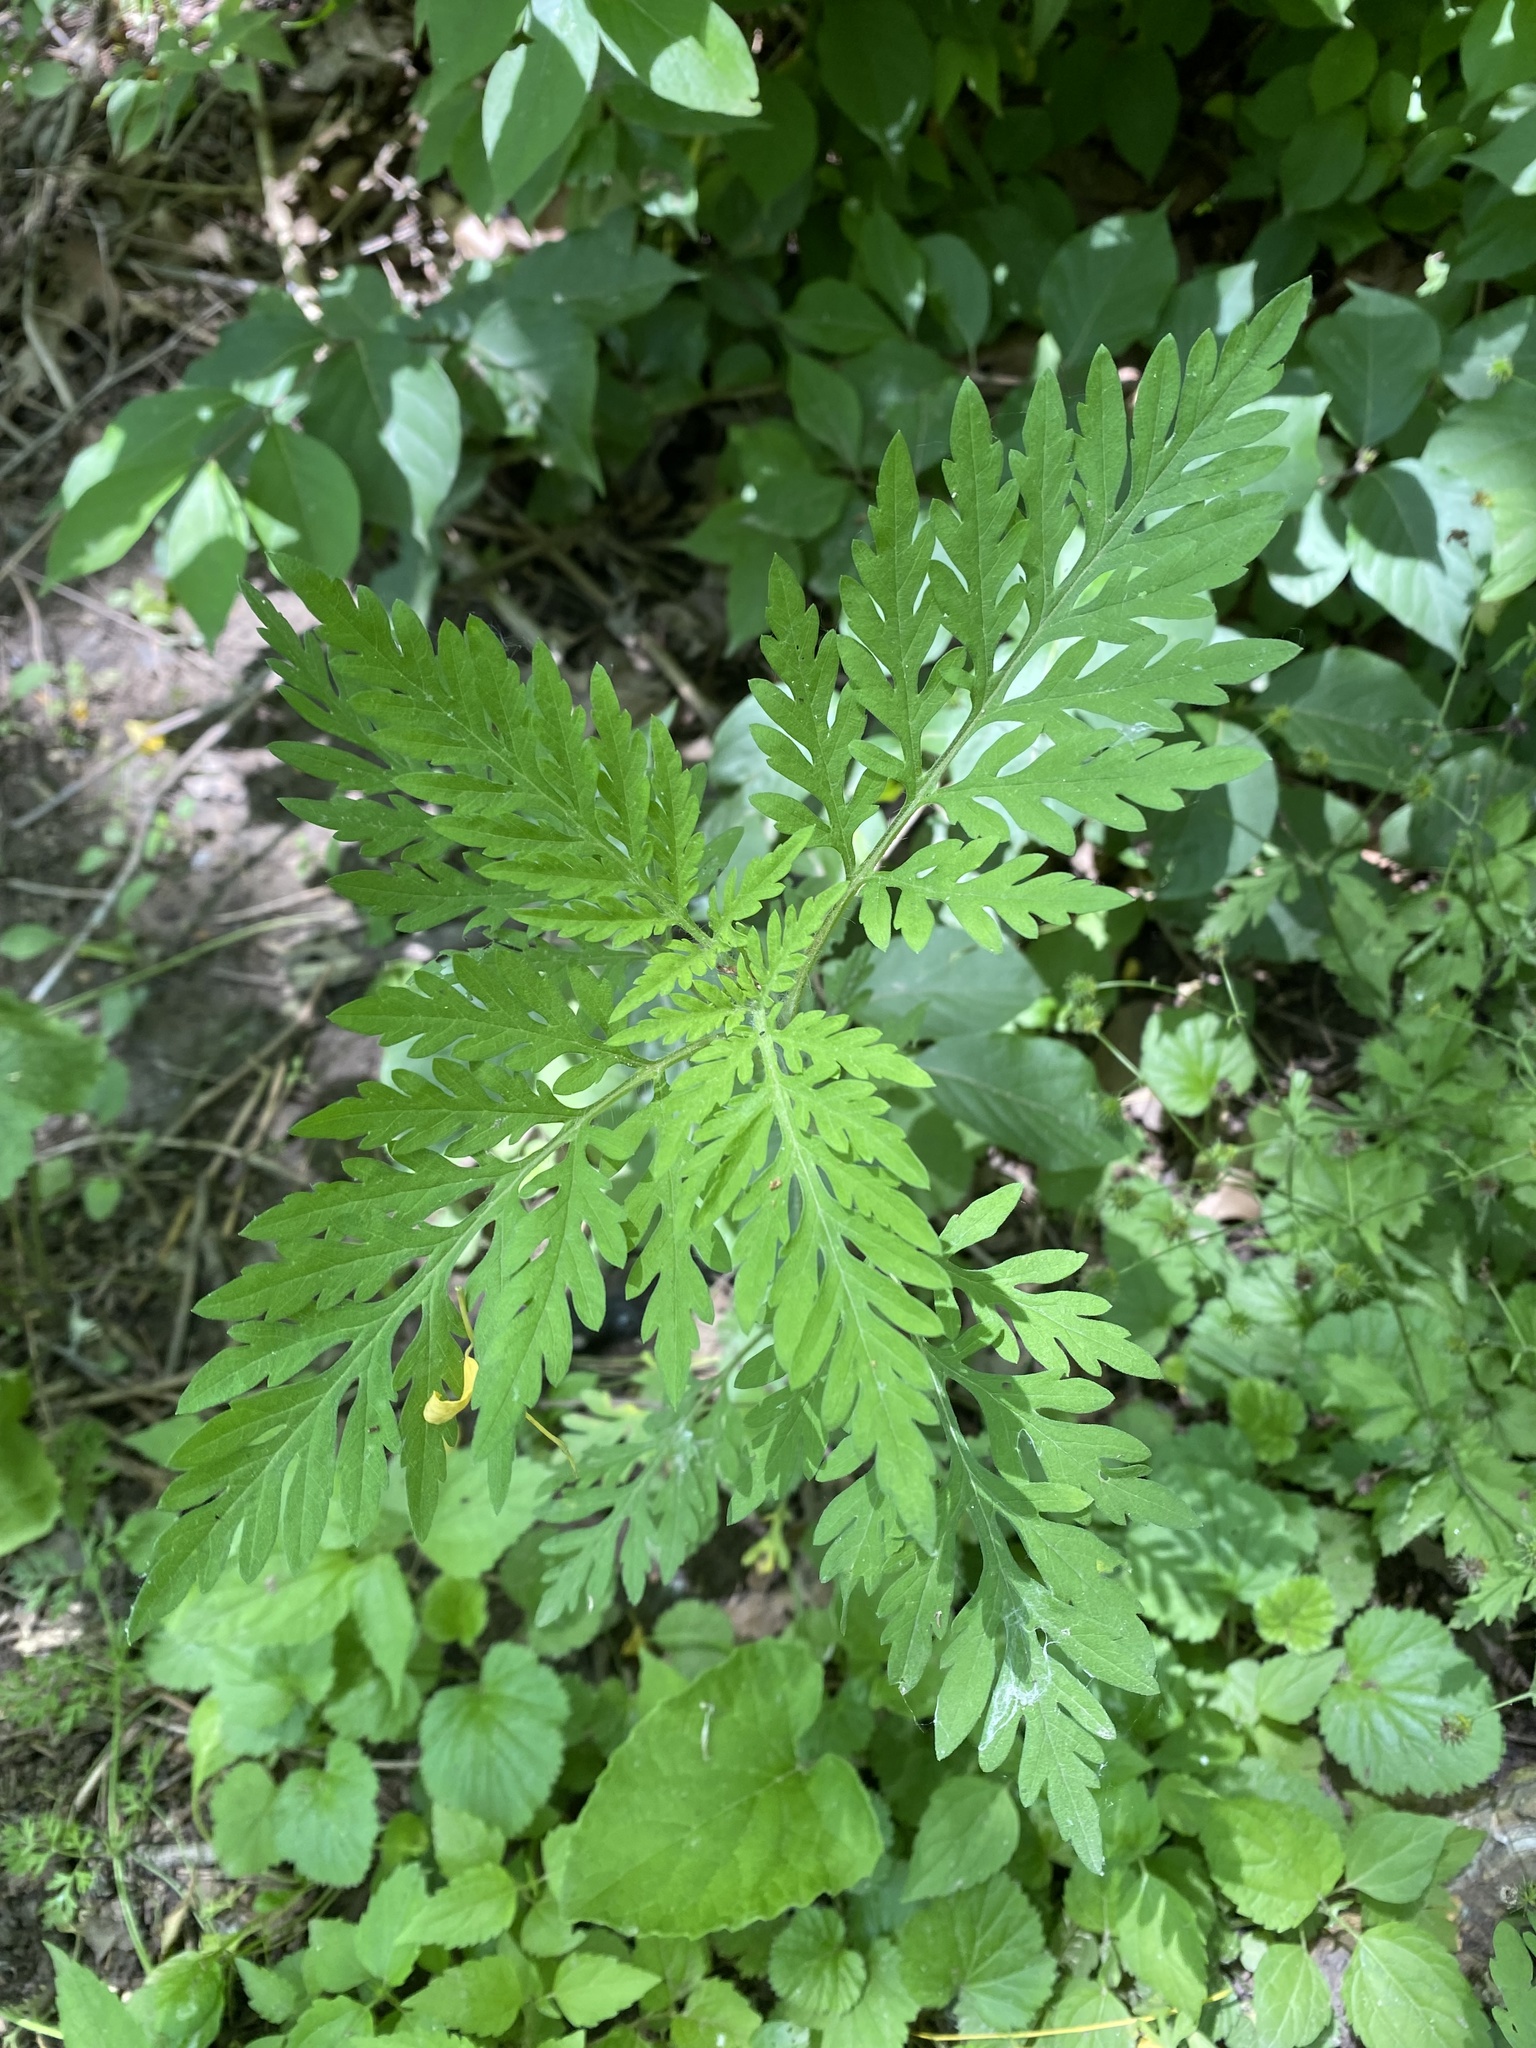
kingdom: Plantae
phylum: Tracheophyta
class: Magnoliopsida
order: Asterales
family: Asteraceae
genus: Ambrosia
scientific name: Ambrosia artemisiifolia
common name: Annual ragweed
